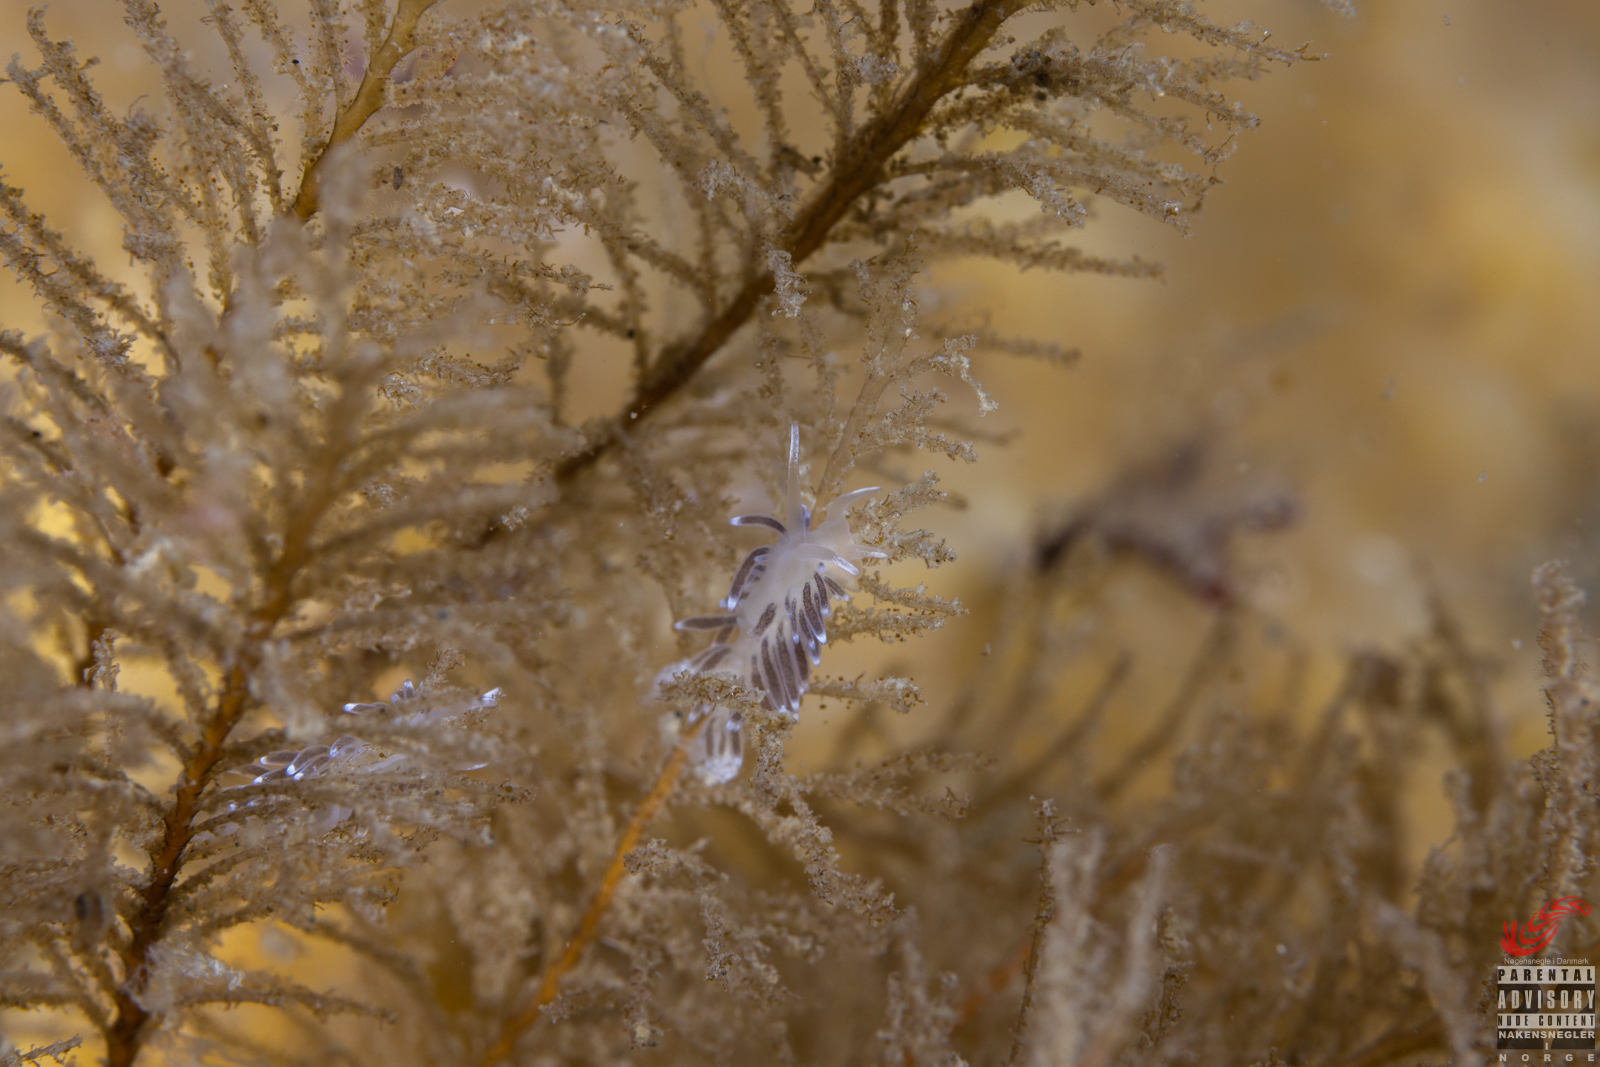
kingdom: Animalia
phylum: Mollusca
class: Gastropoda
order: Nudibranchia
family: Cuthonellidae
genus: Cuthonella
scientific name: Cuthonella concinna
